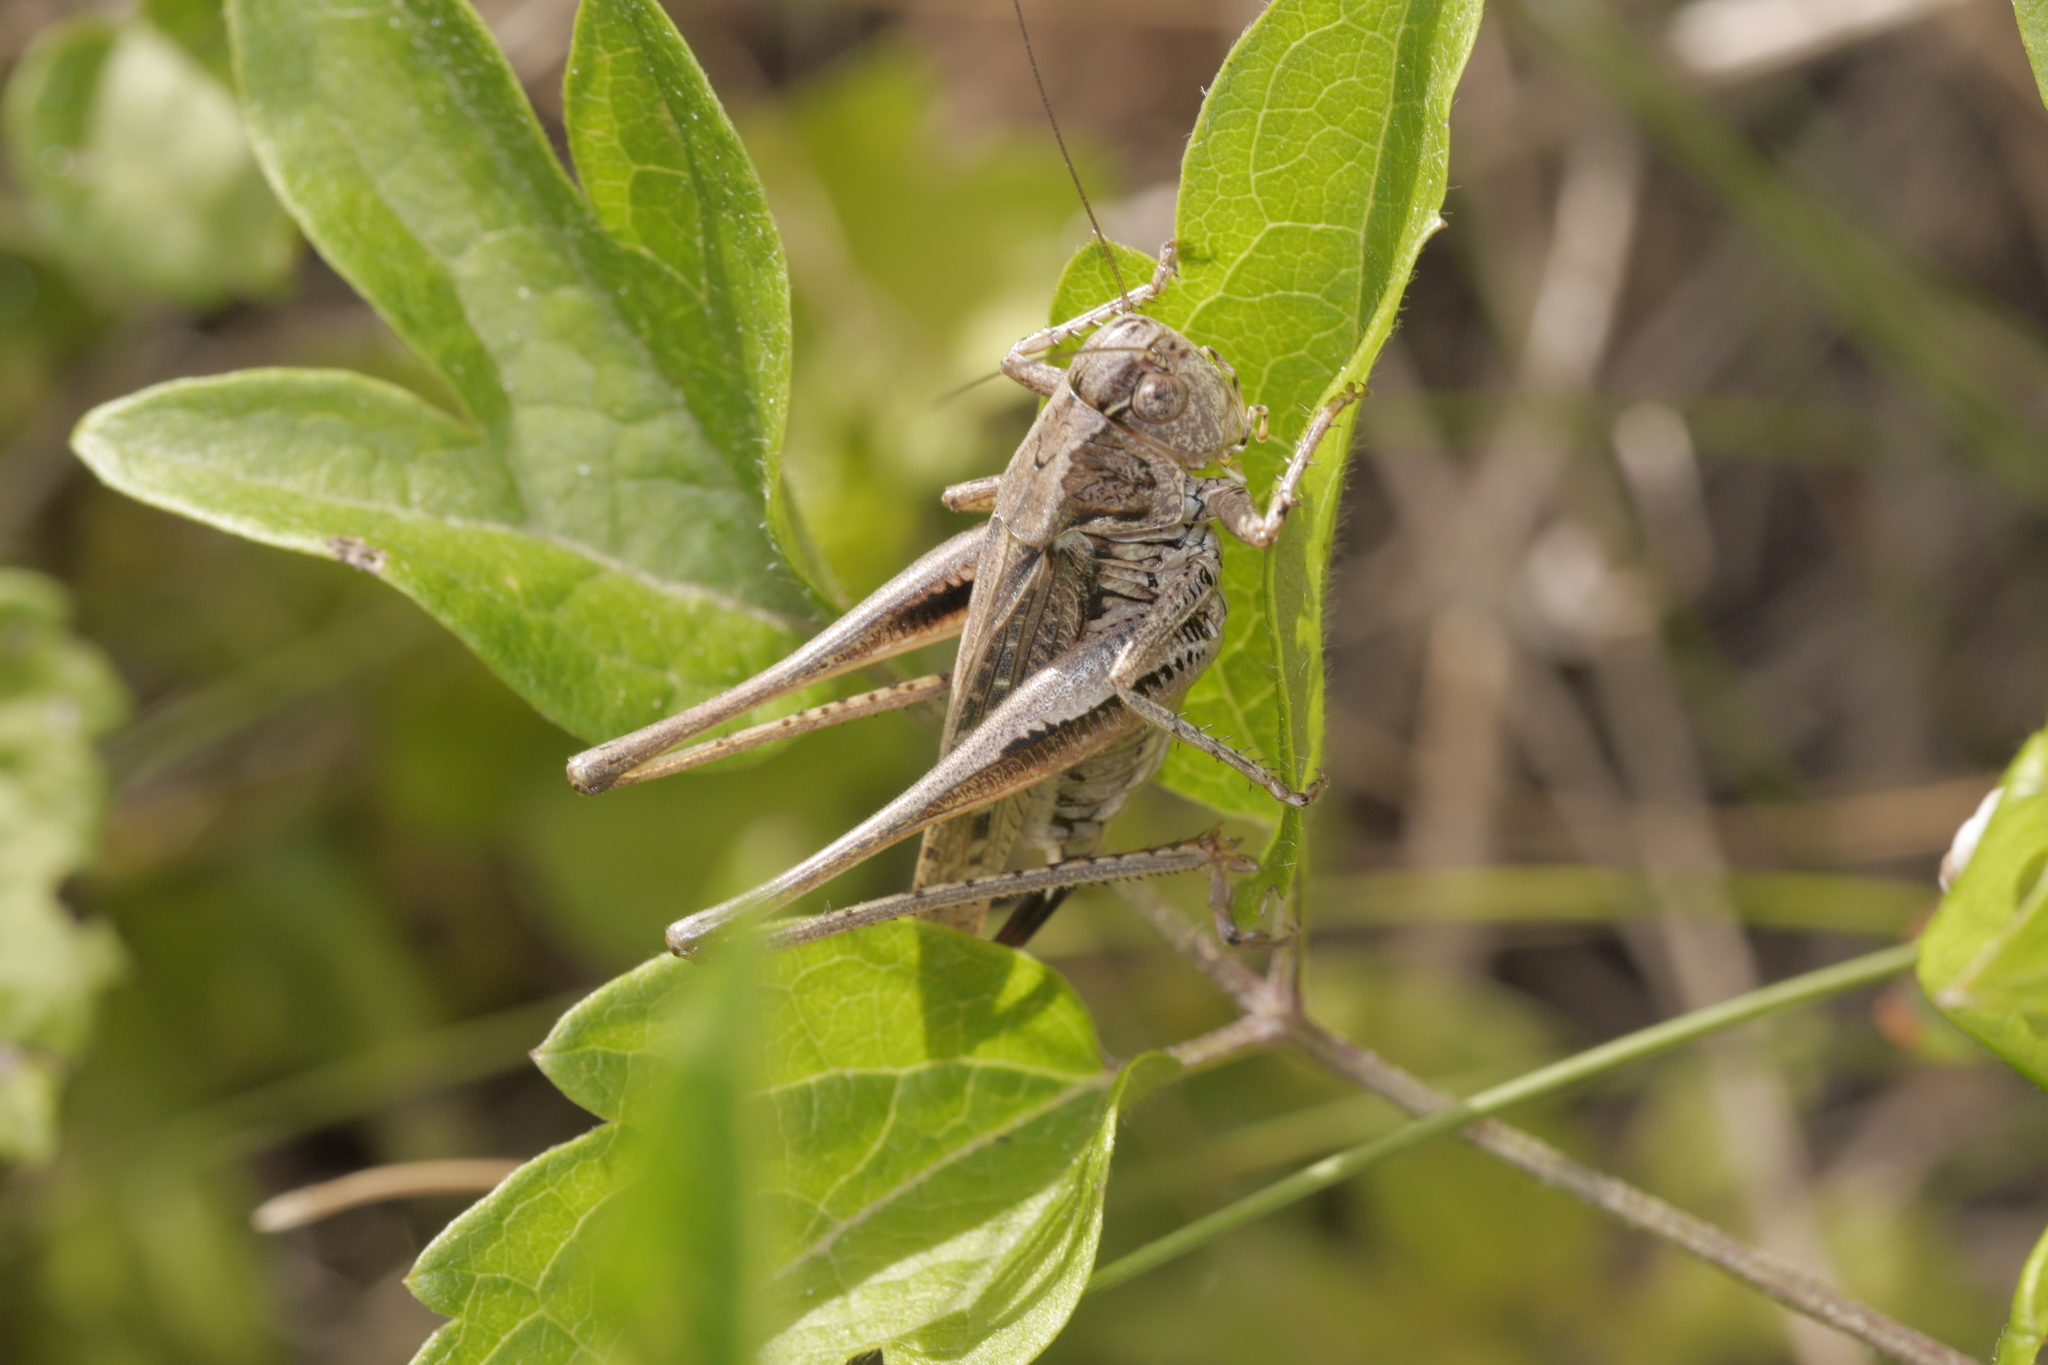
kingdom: Animalia
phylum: Arthropoda
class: Insecta
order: Orthoptera
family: Tettigoniidae
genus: Platycleis
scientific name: Platycleis albopunctata
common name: Grey bush-cricket
